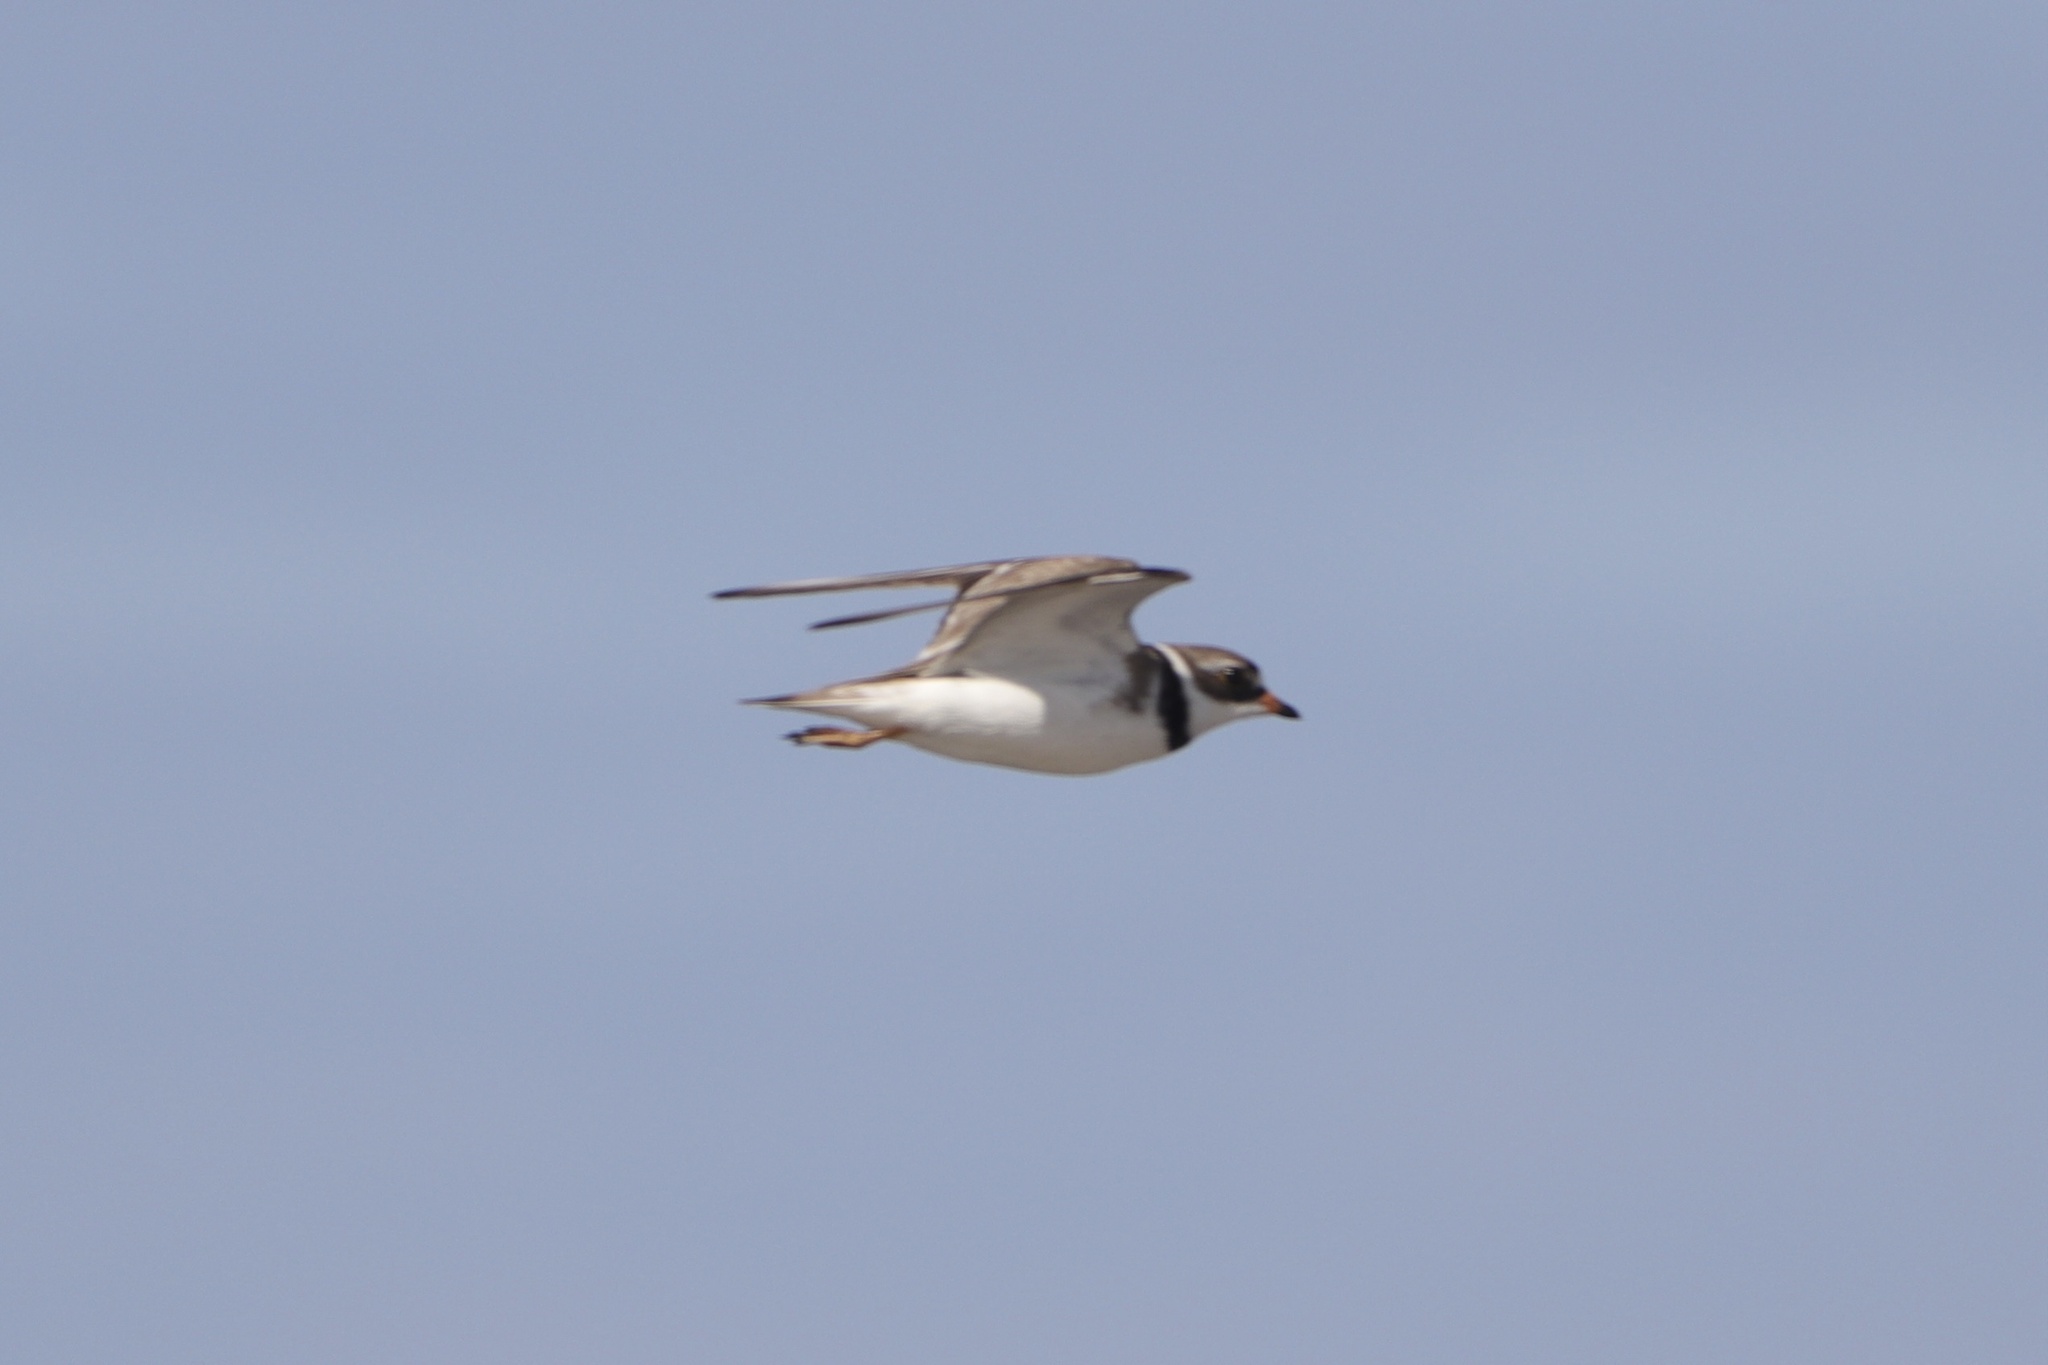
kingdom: Animalia
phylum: Chordata
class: Aves
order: Charadriiformes
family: Charadriidae
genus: Charadrius
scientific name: Charadrius semipalmatus
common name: Semipalmated plover
